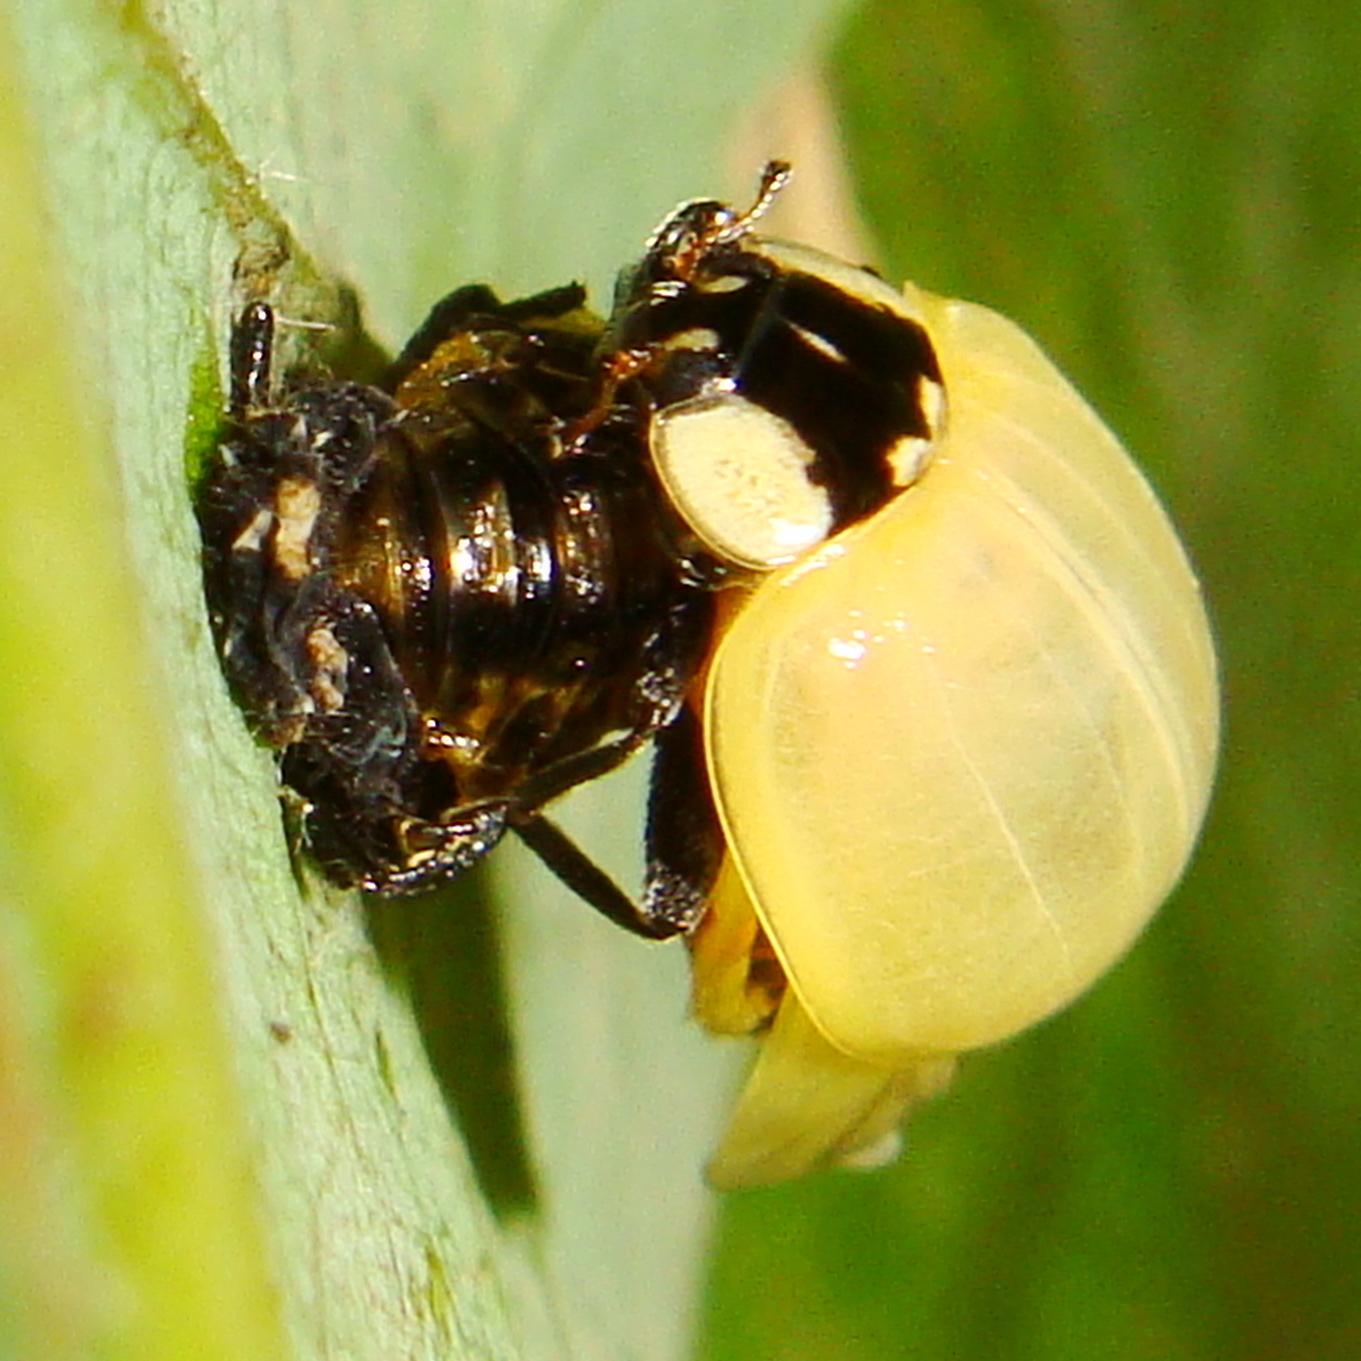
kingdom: Animalia
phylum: Arthropoda
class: Insecta
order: Coleoptera
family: Coccinellidae
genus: Harmonia
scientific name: Harmonia axyridis
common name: Harlequin ladybird
